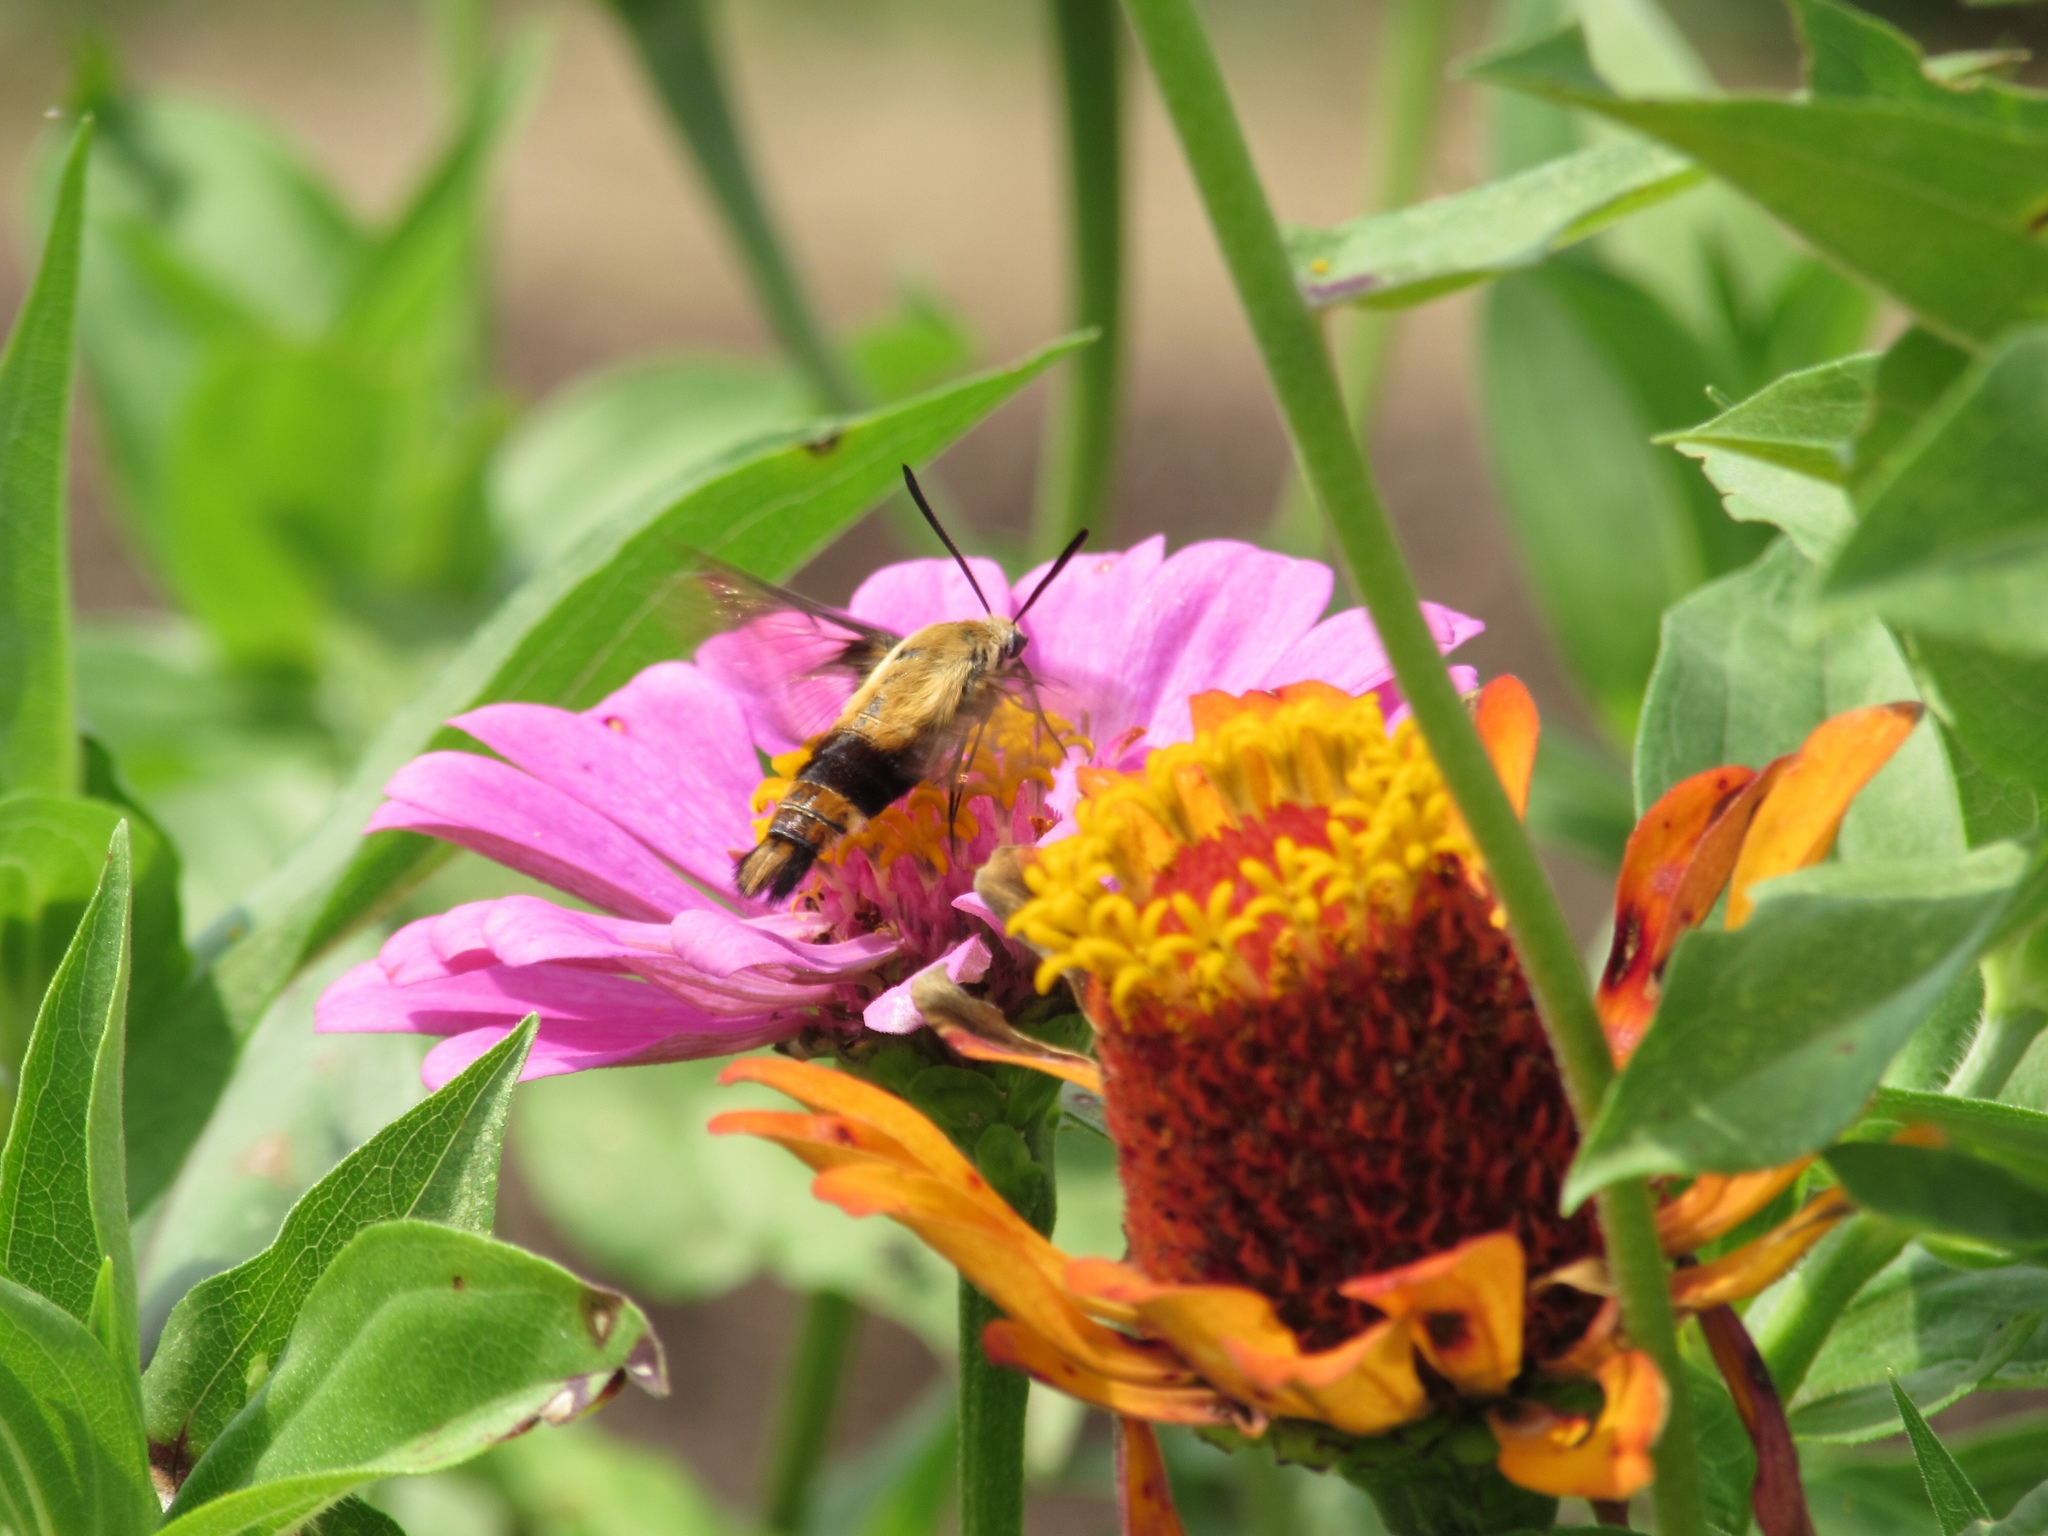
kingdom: Animalia
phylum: Arthropoda
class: Insecta
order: Lepidoptera
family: Sphingidae
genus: Hemaris
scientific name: Hemaris diffinis
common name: Bumblebee moth
